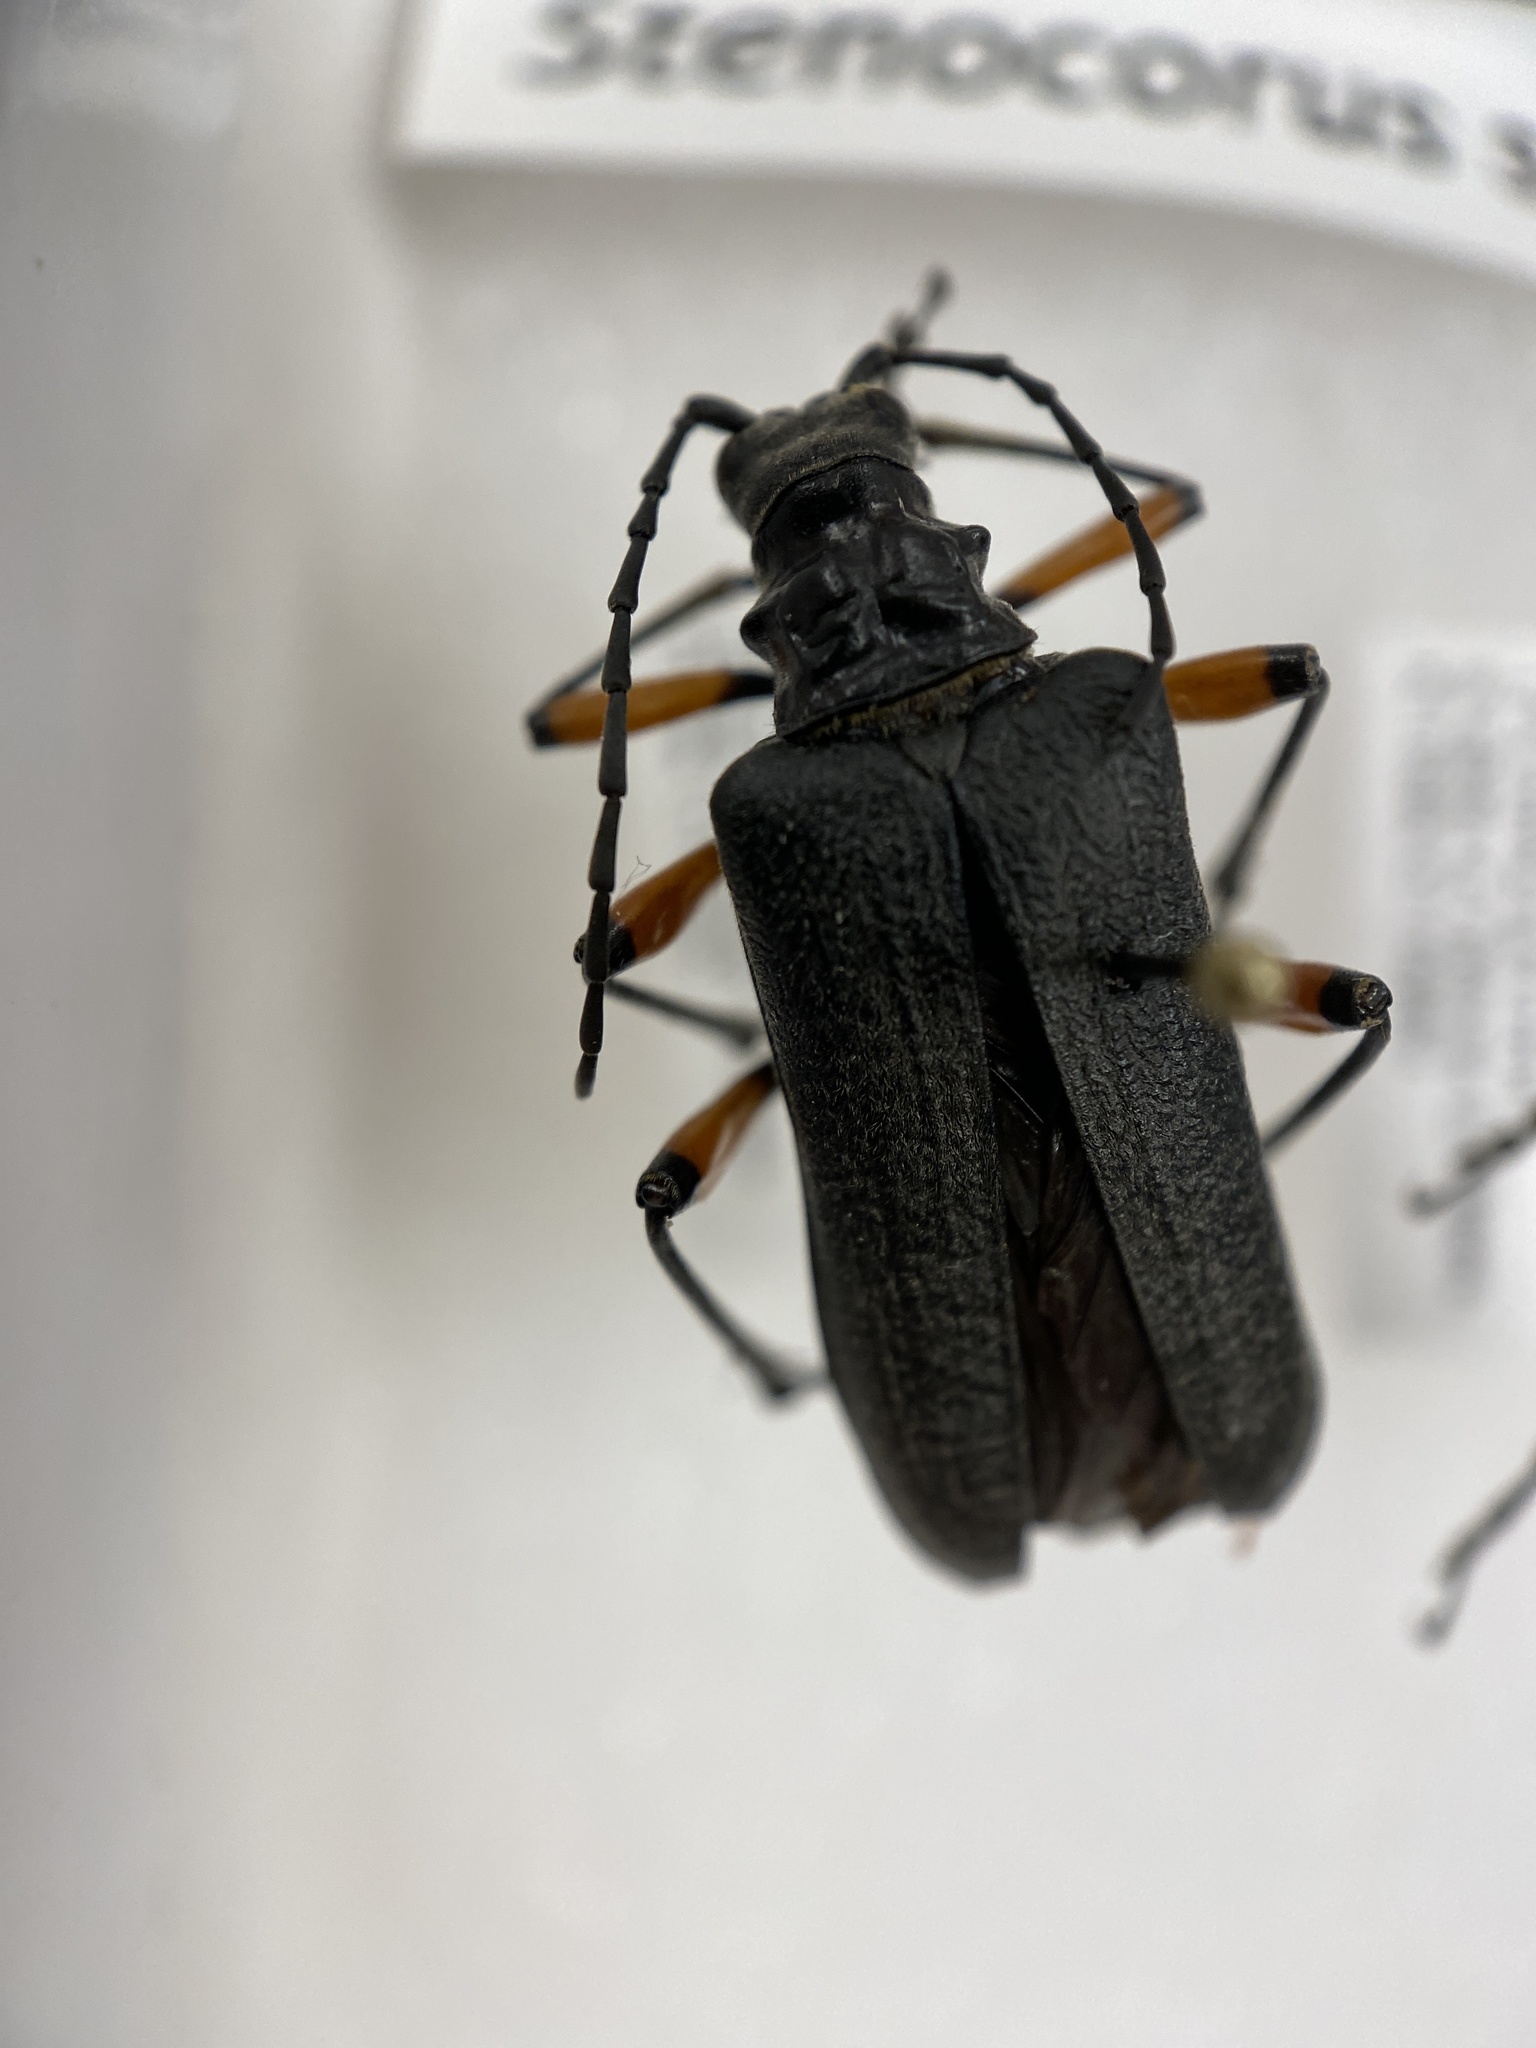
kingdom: Animalia
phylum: Arthropoda
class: Insecta
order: Coleoptera
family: Cerambycidae
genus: Stenocorus
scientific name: Stenocorus schaumii
